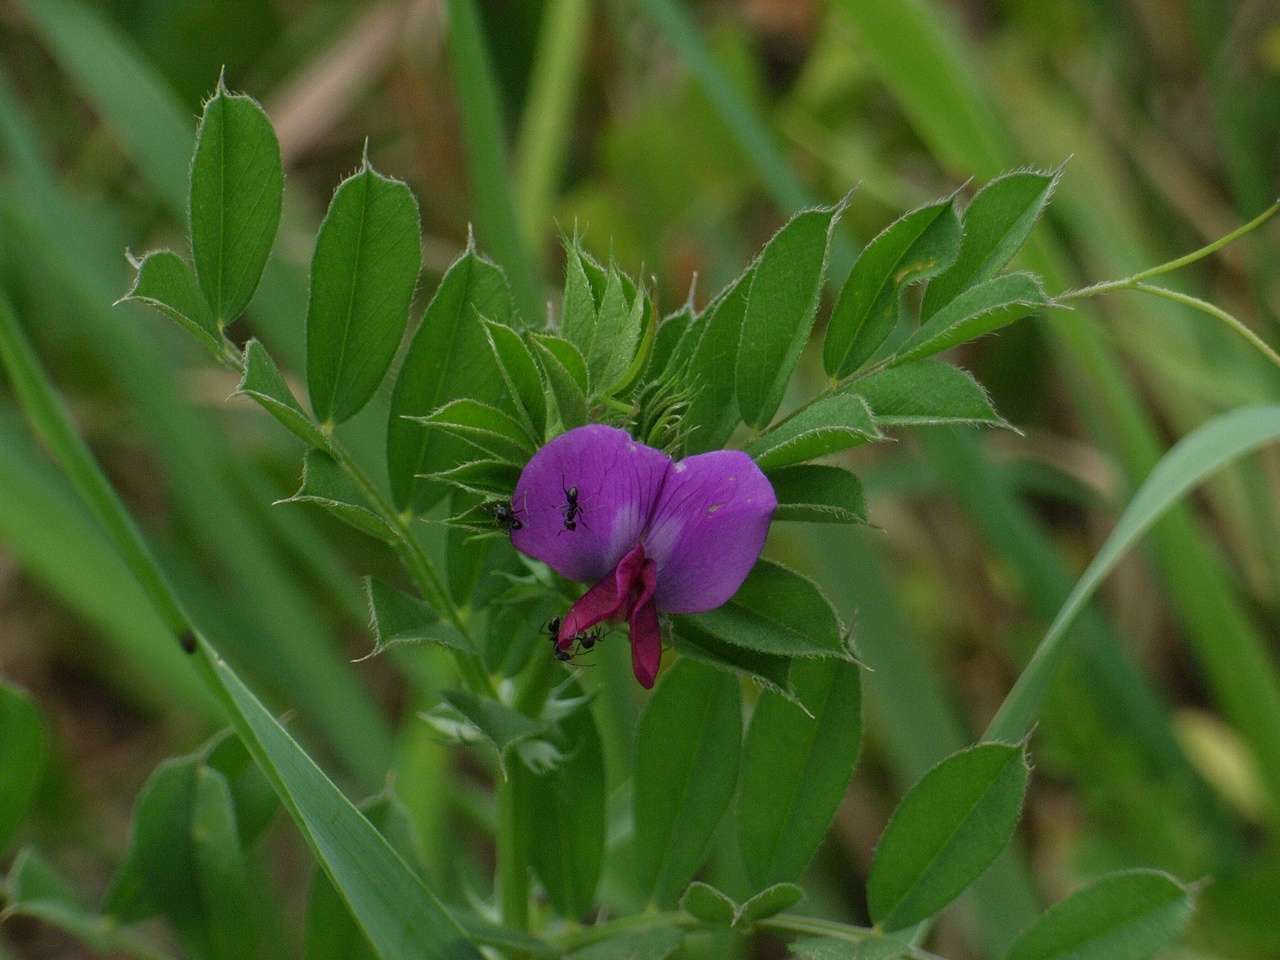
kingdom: Plantae
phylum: Tracheophyta
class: Magnoliopsida
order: Fabales
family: Fabaceae
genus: Vicia
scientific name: Vicia sativa
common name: Garden vetch
